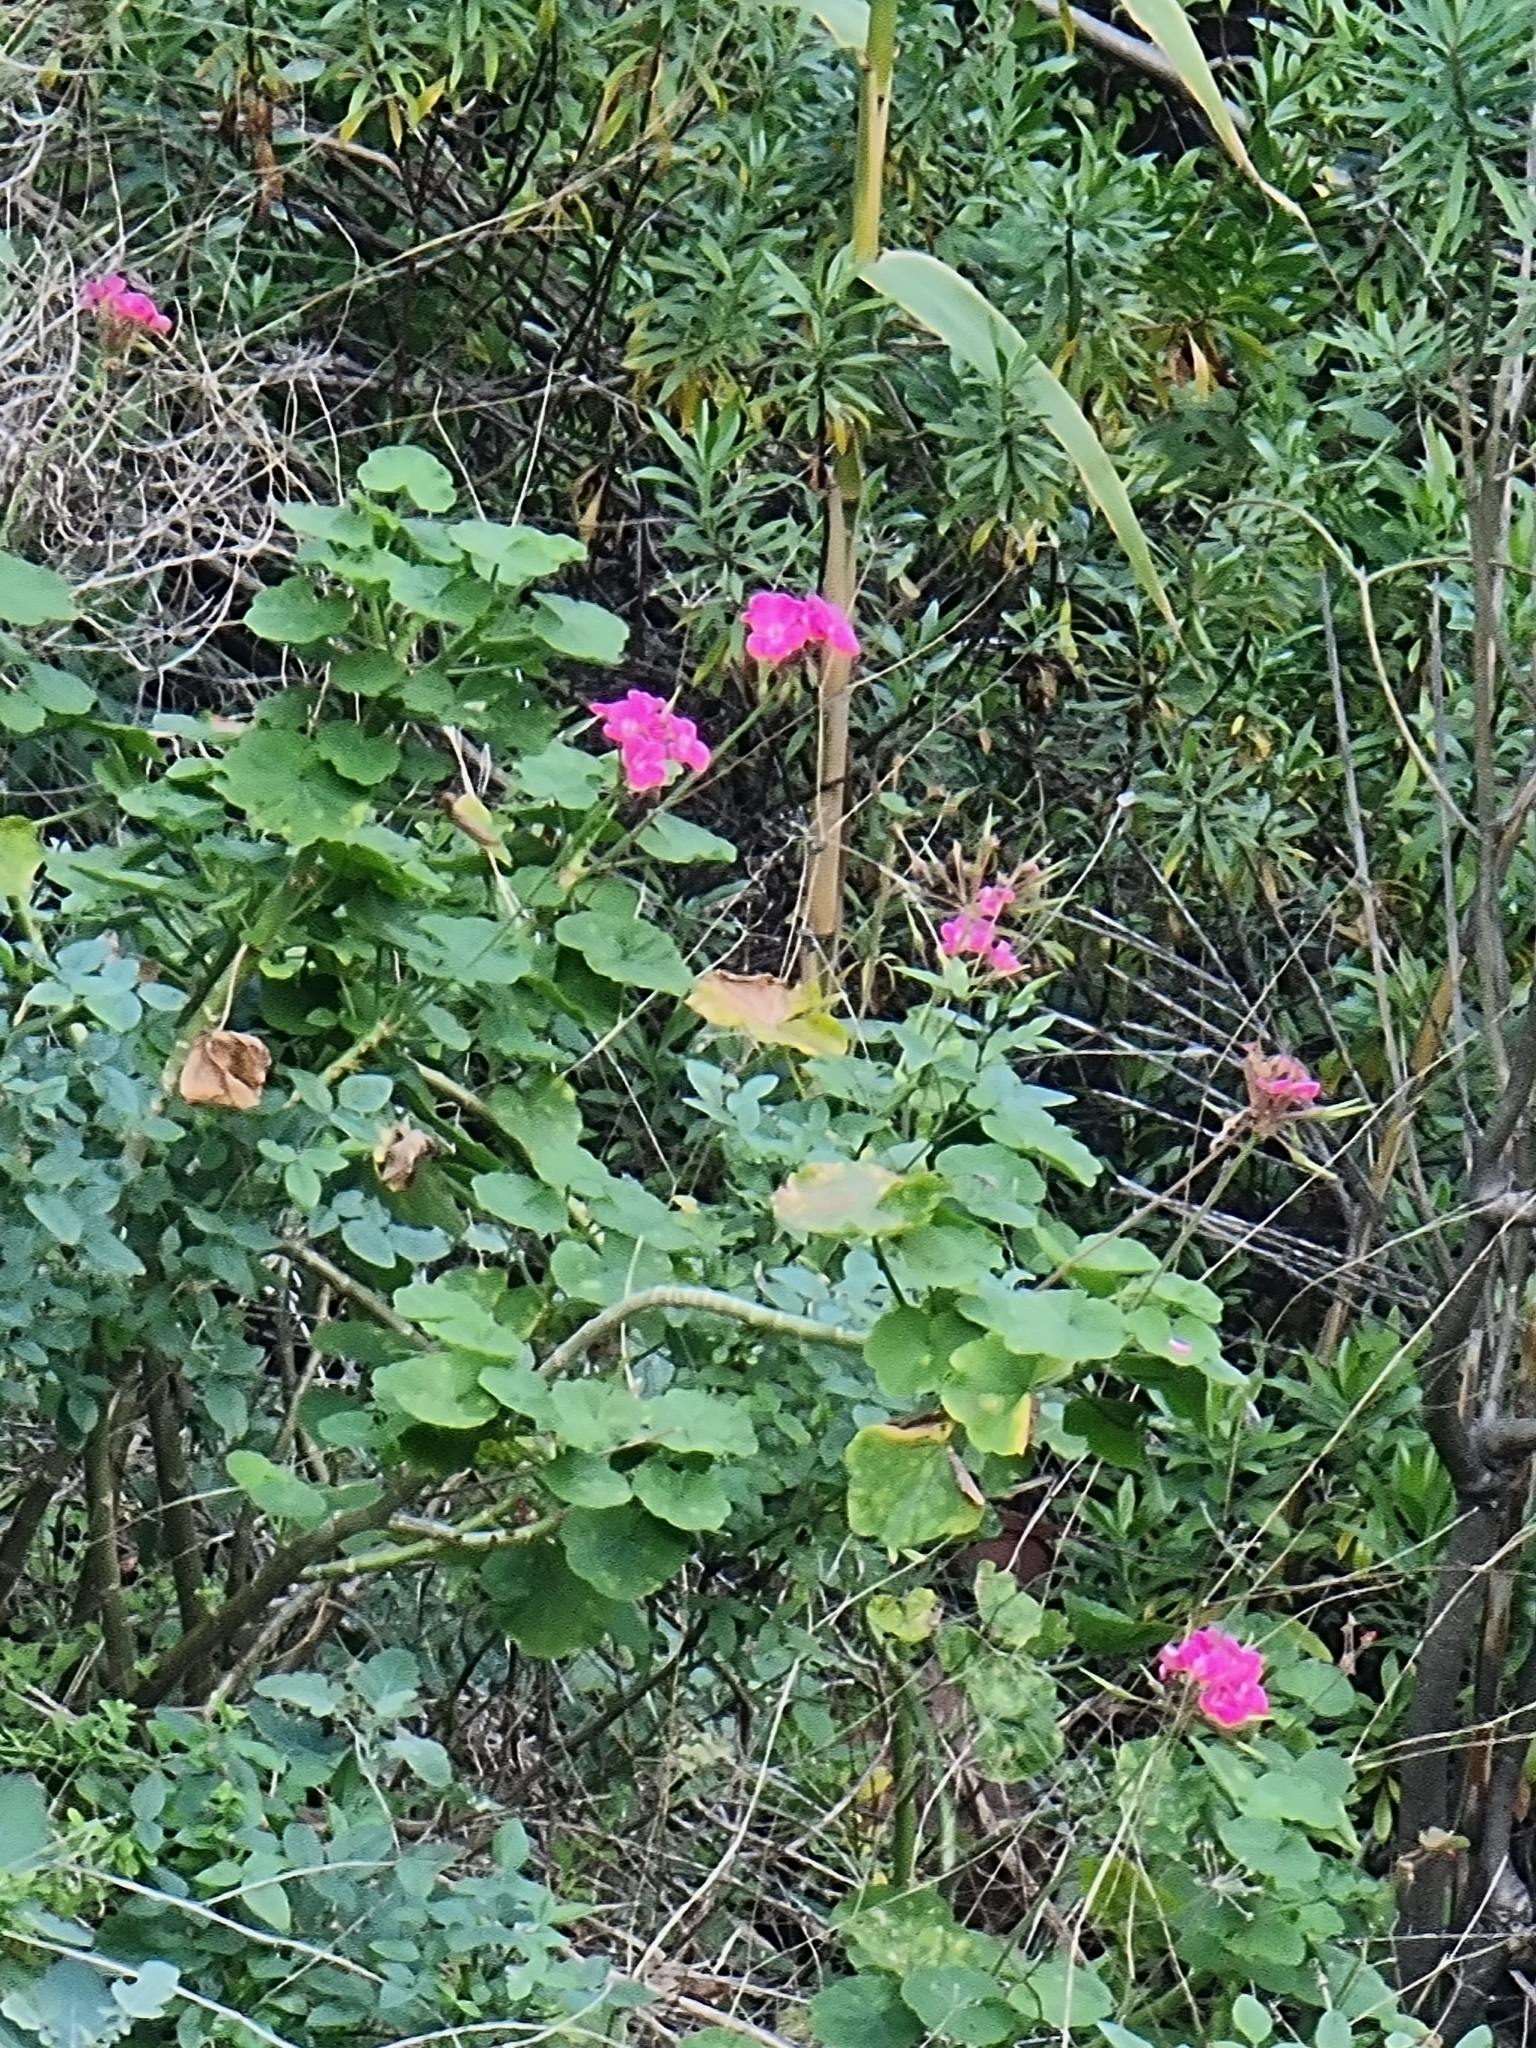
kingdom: Plantae
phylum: Tracheophyta
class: Magnoliopsida
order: Geraniales
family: Geraniaceae
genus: Pelargonium
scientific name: Pelargonium hybridum
